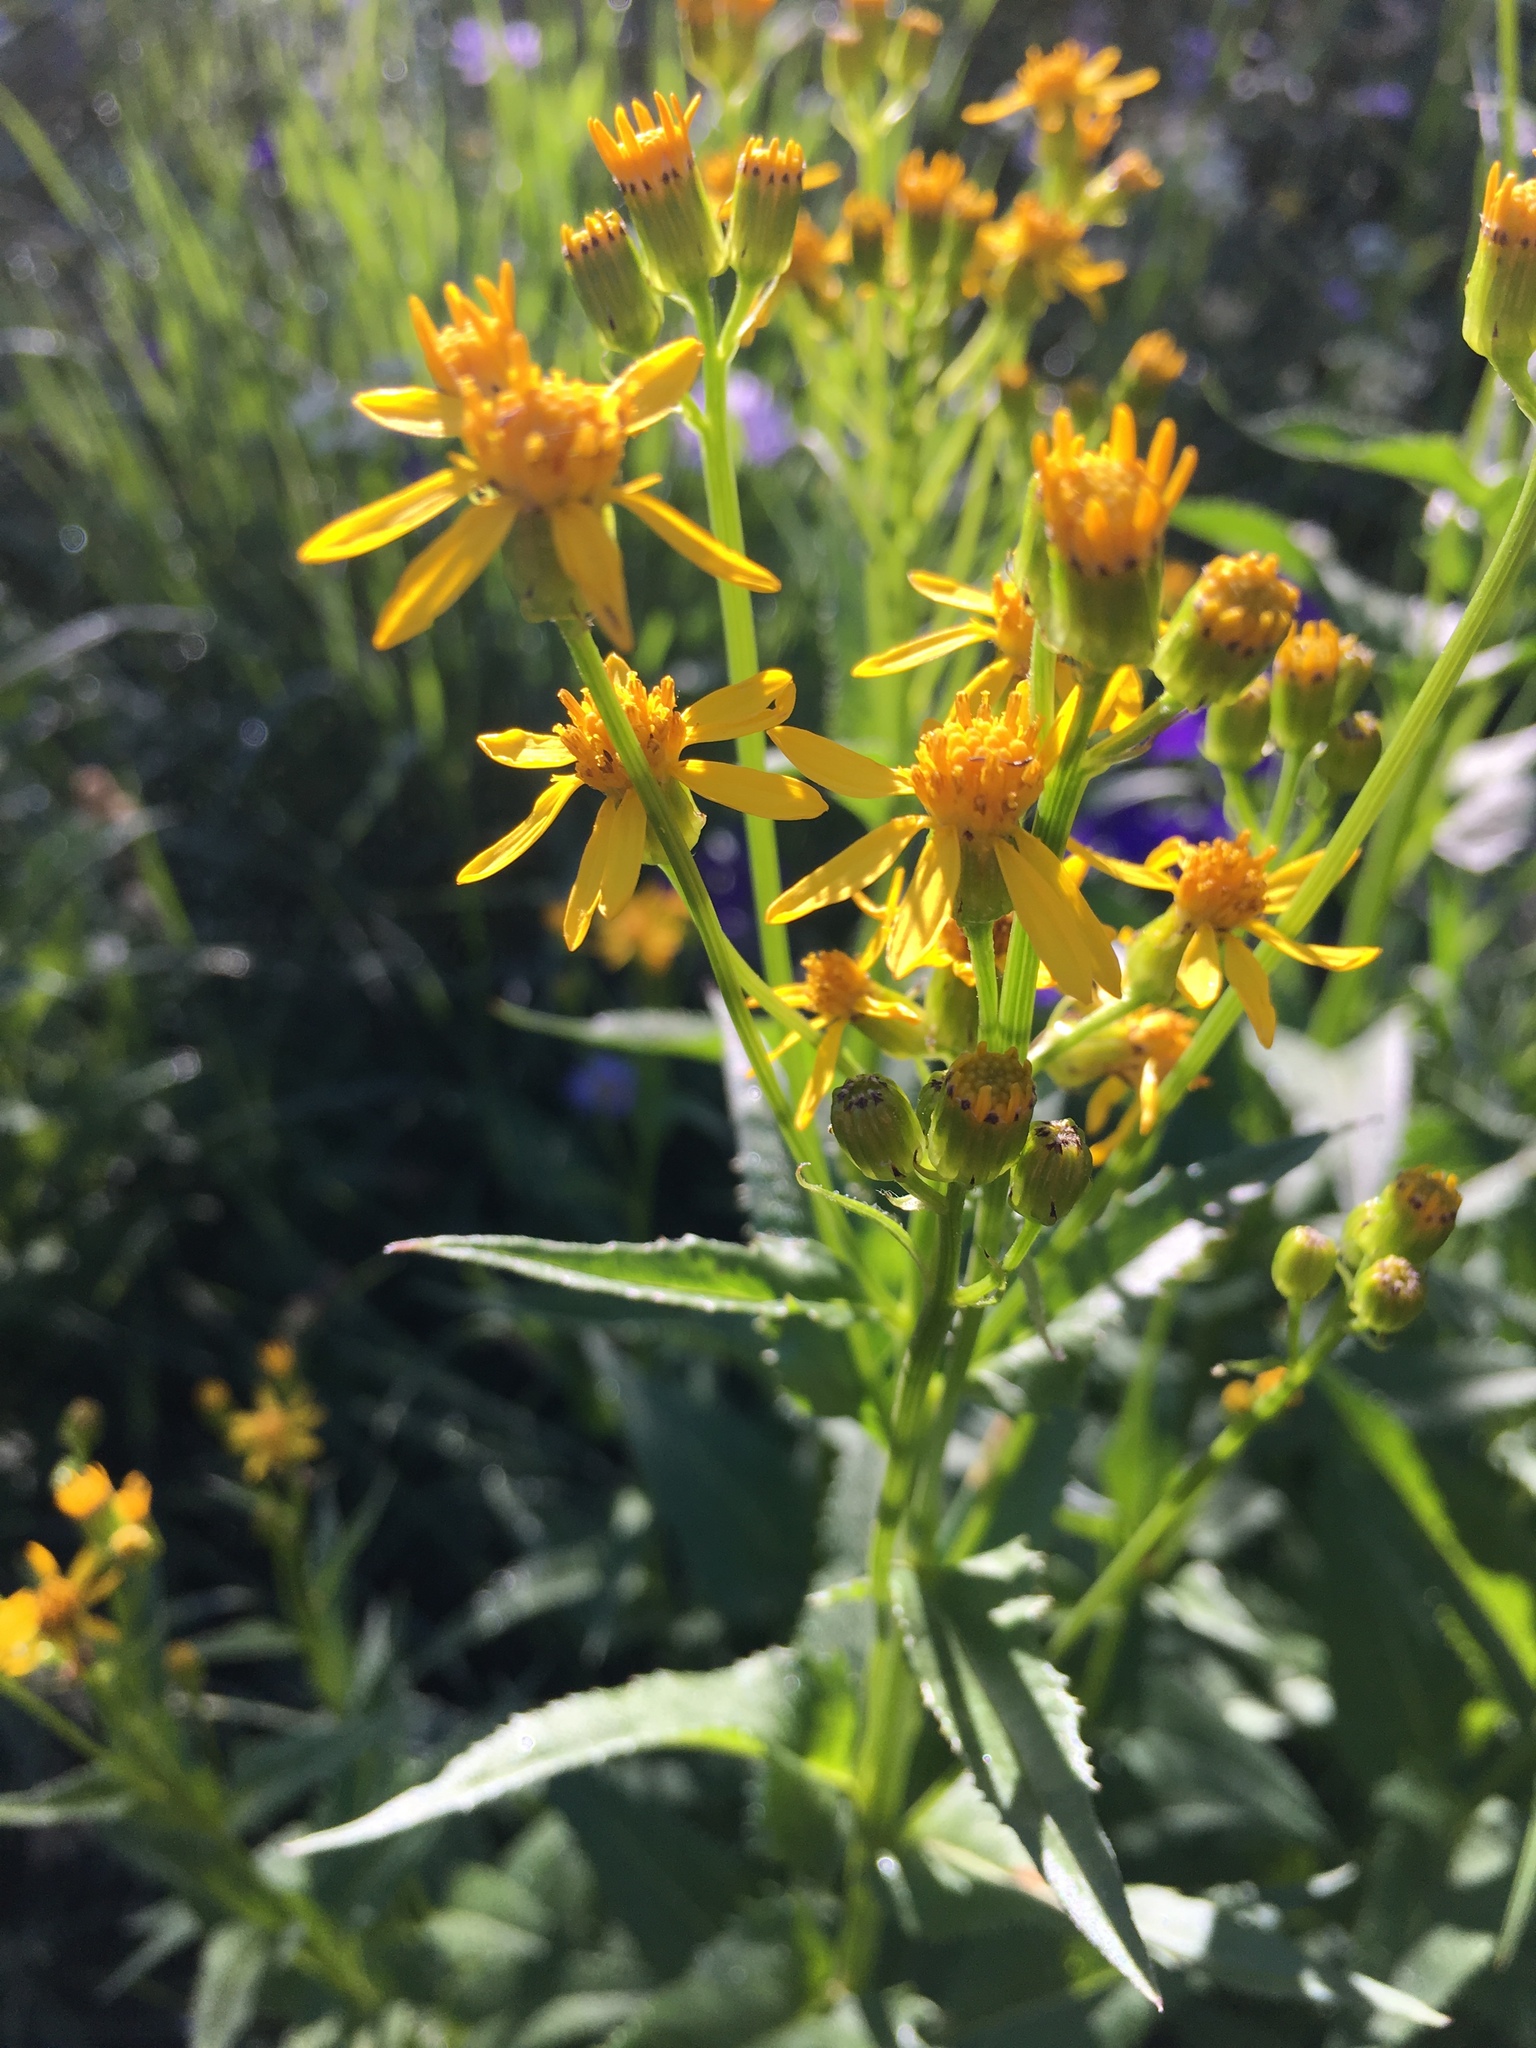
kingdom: Plantae
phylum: Tracheophyta
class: Magnoliopsida
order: Asterales
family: Asteraceae
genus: Senecio
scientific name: Senecio triangularis
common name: Arrowleaf butterweed
